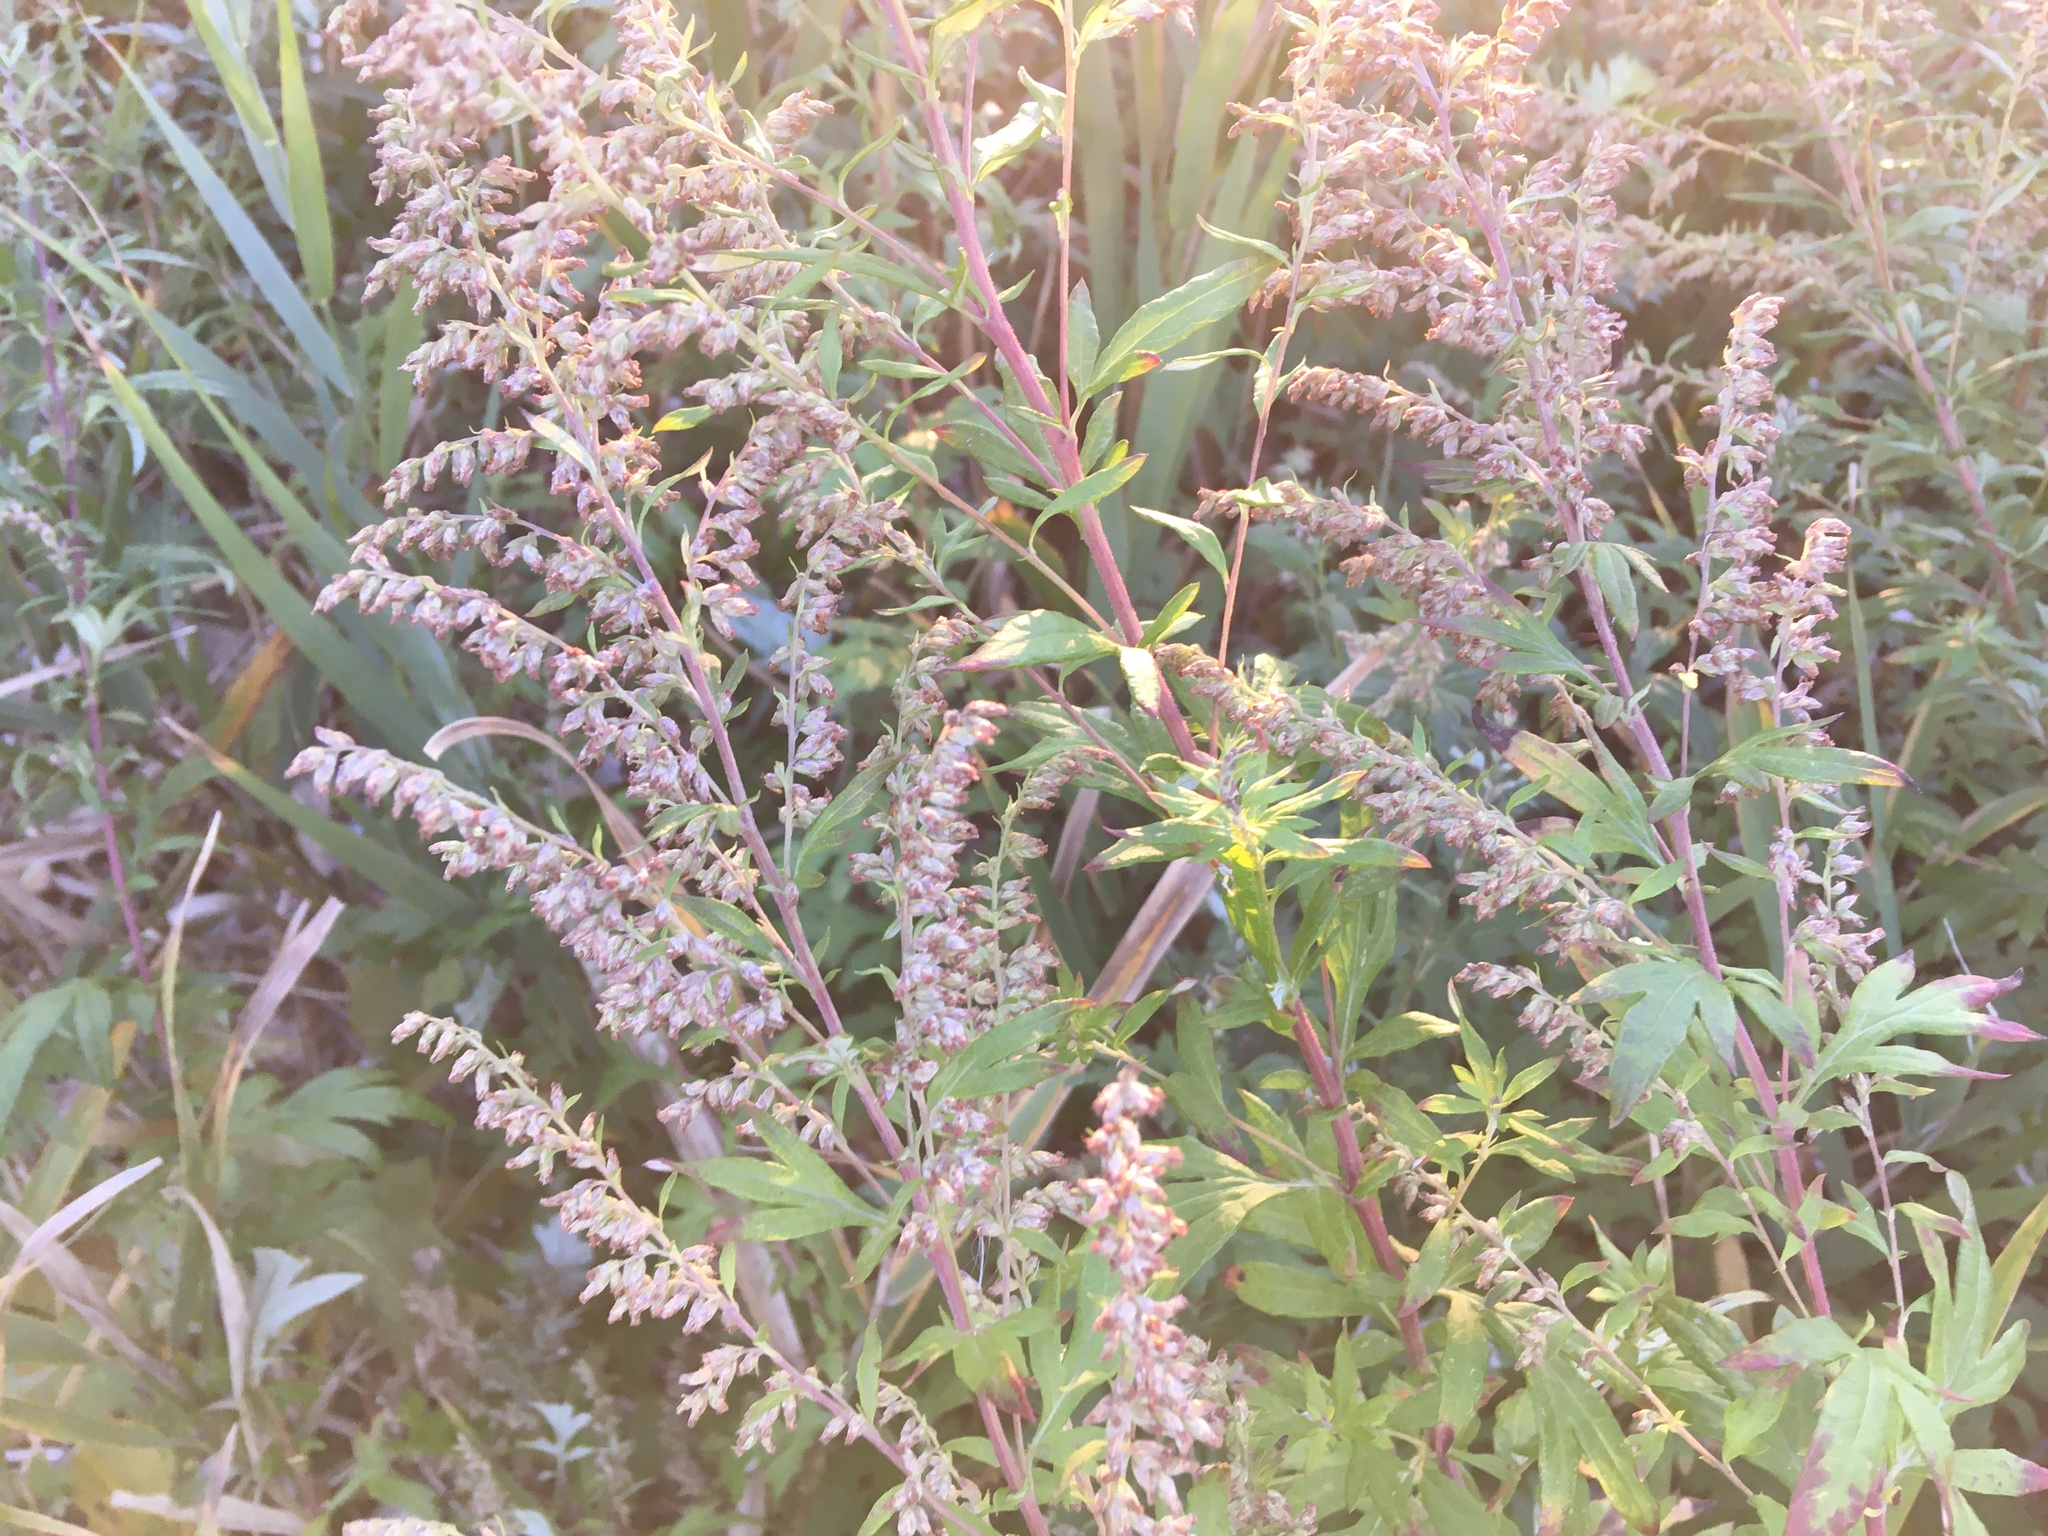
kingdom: Plantae
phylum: Tracheophyta
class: Magnoliopsida
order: Asterales
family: Asteraceae
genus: Artemisia
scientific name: Artemisia vulgaris
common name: Mugwort
